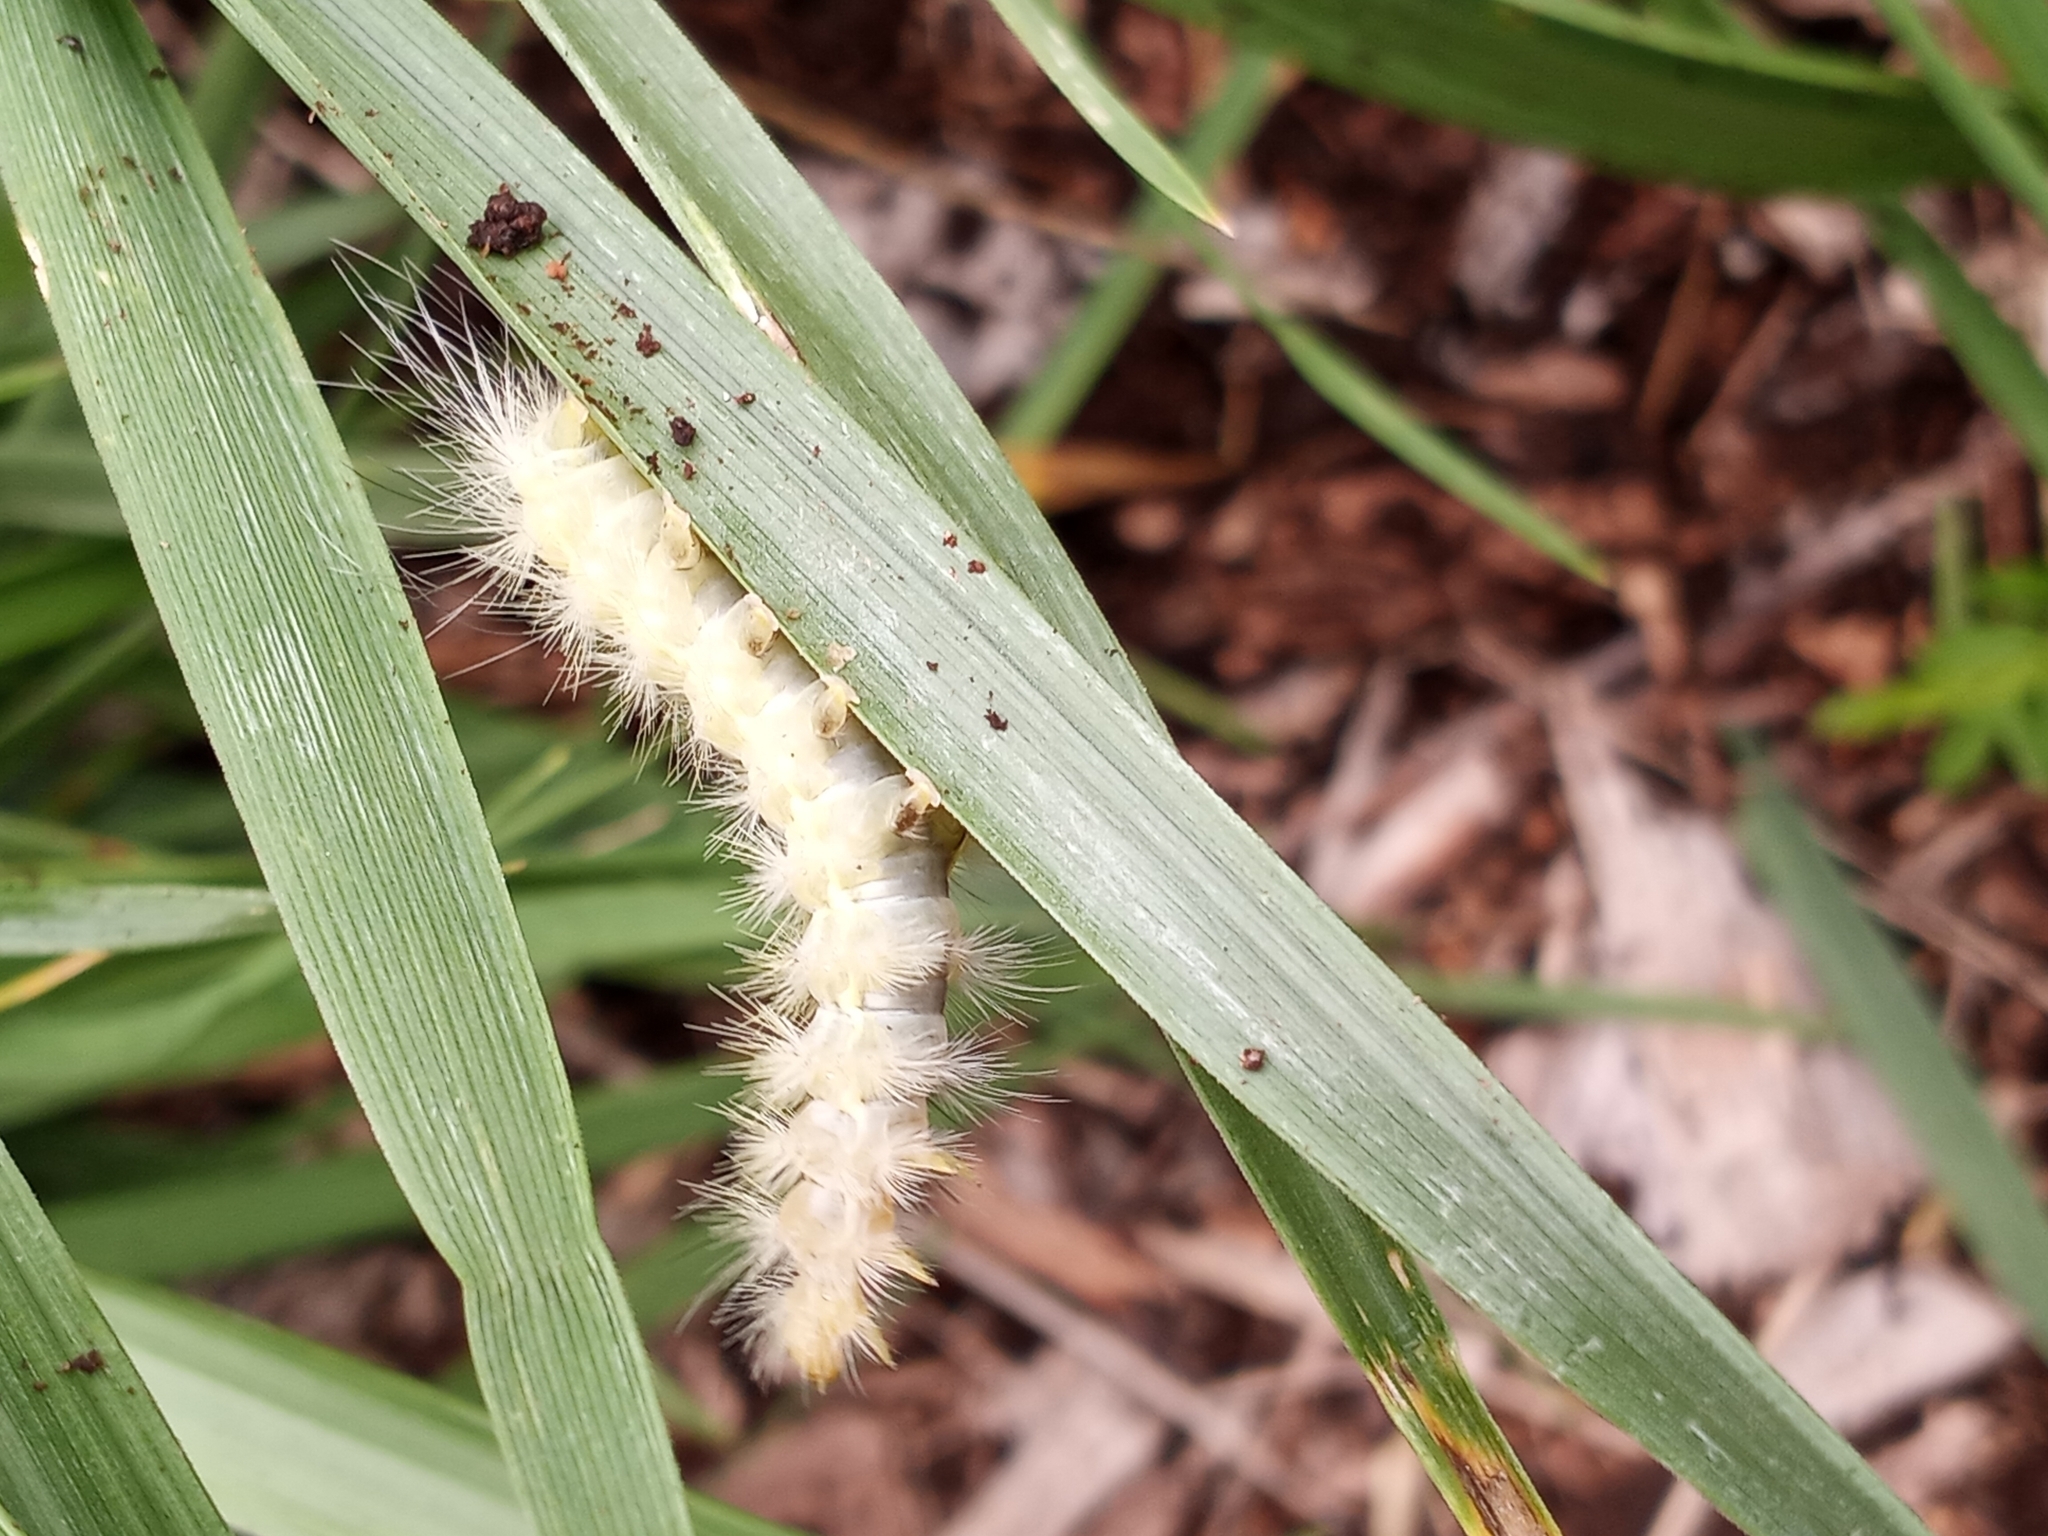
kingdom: Animalia
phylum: Arthropoda
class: Insecta
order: Lepidoptera
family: Erebidae
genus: Spilosoma
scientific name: Spilosoma virginica
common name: Virginia tiger moth
